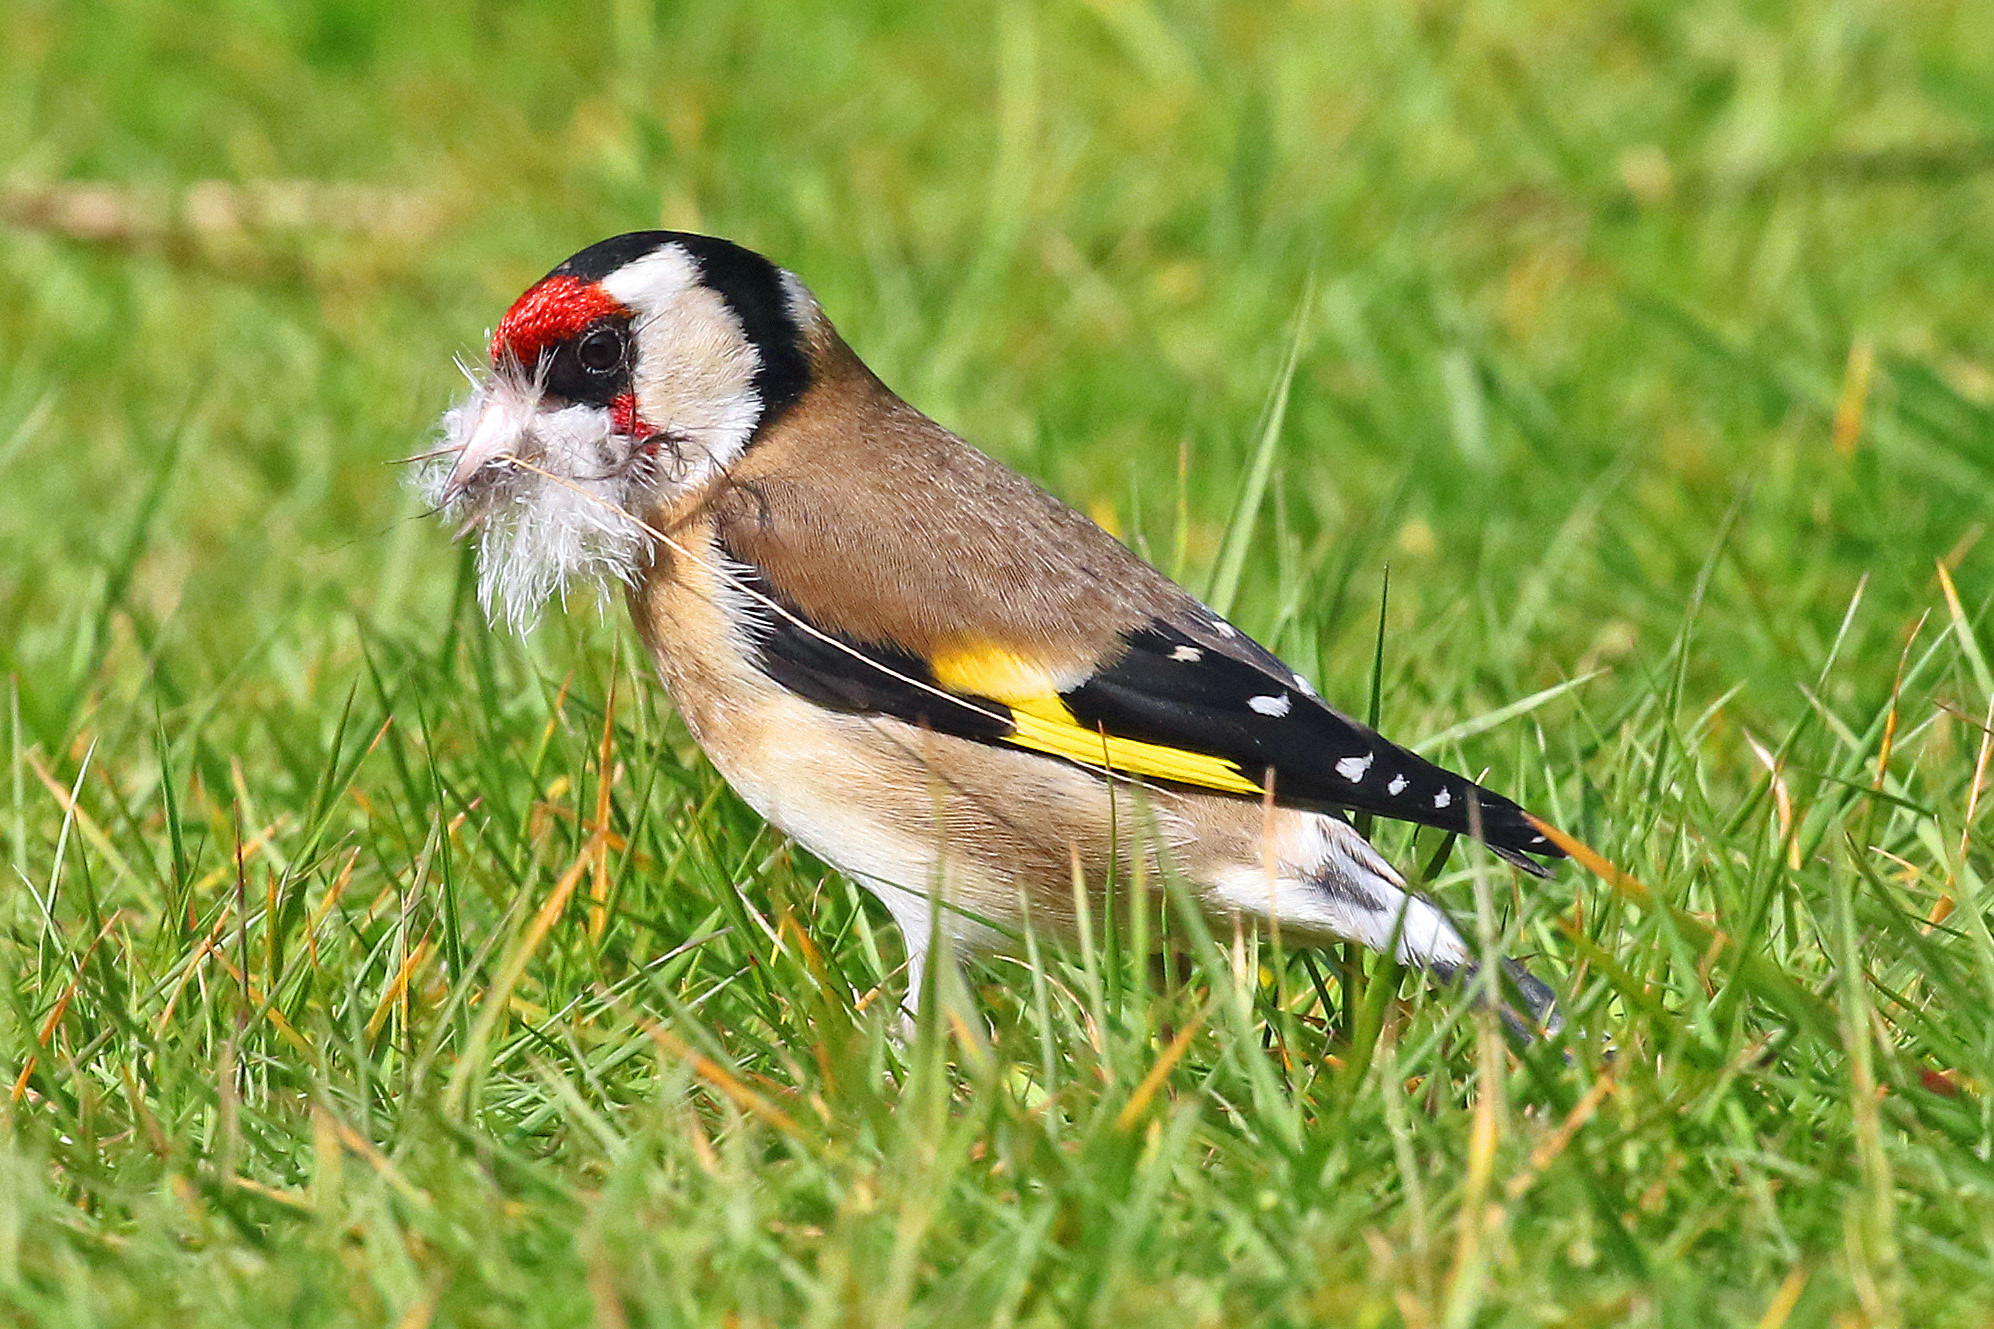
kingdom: Animalia
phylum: Chordata
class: Aves
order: Passeriformes
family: Fringillidae
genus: Carduelis
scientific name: Carduelis carduelis
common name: European goldfinch
